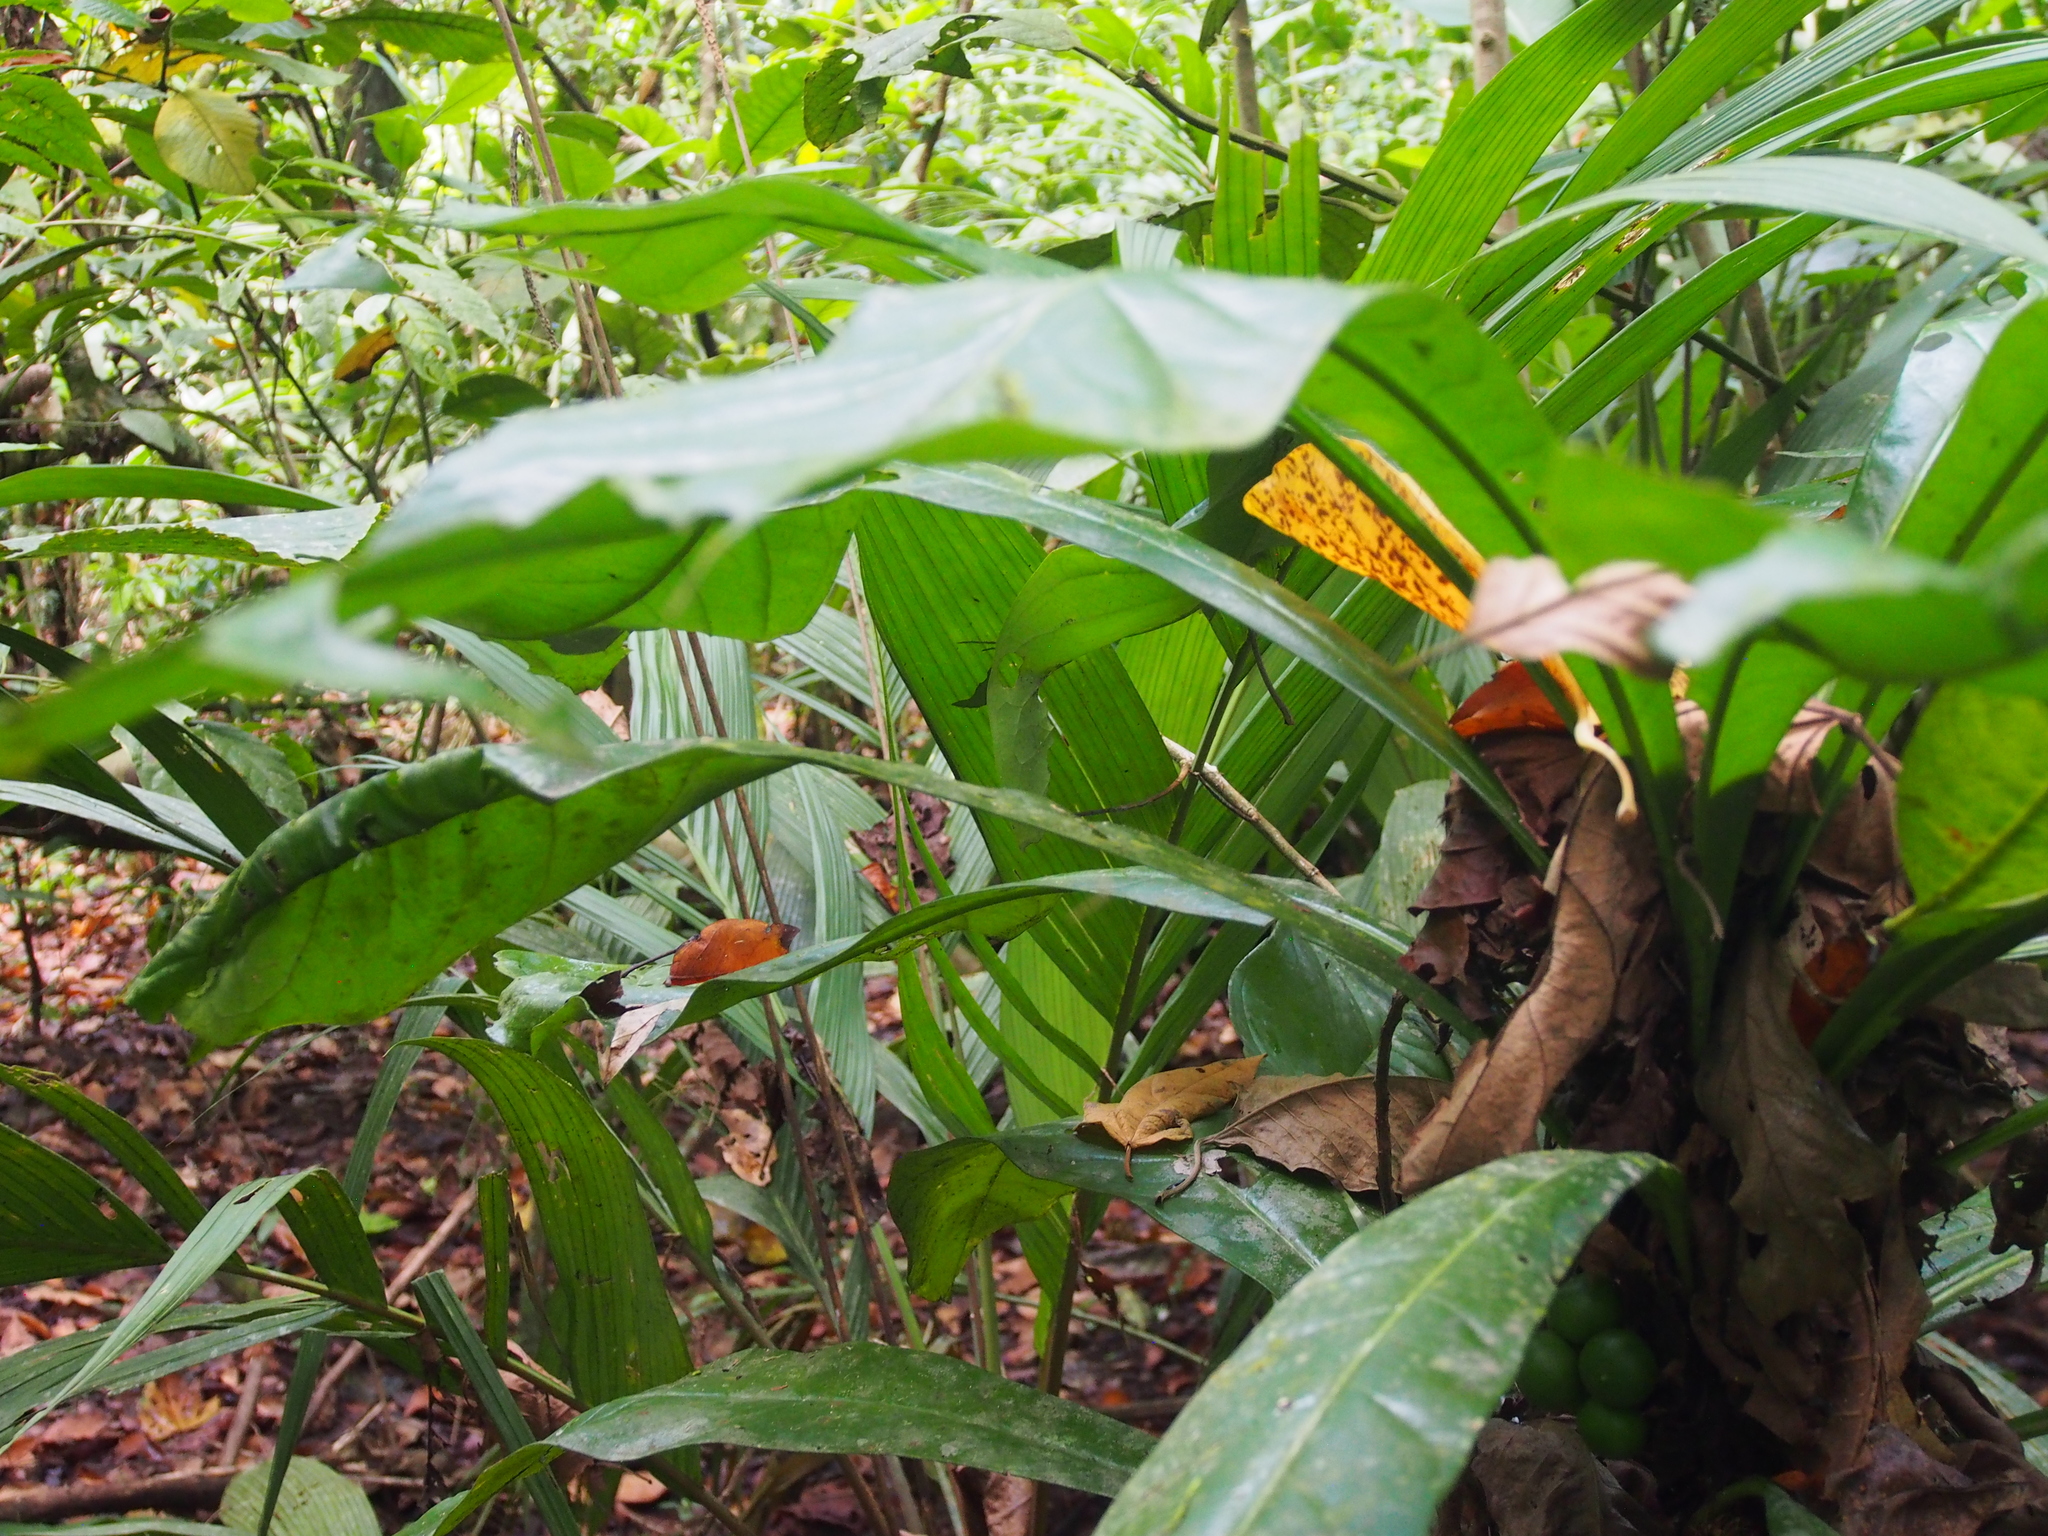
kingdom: Plantae
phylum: Tracheophyta
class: Magnoliopsida
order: Ericales
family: Primulaceae
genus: Clavija
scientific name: Clavija costaricana
